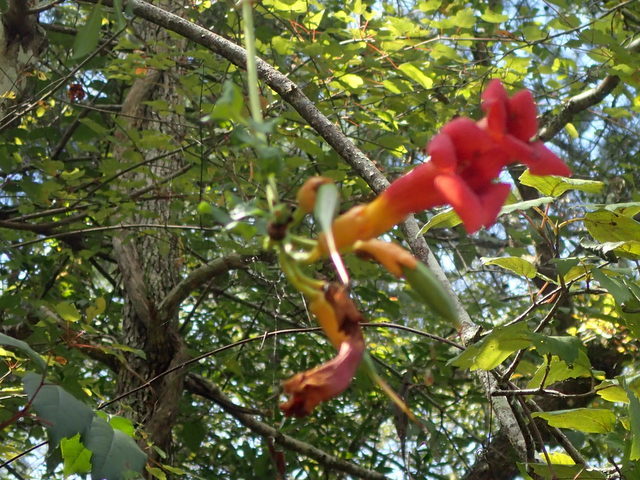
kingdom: Plantae
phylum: Tracheophyta
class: Magnoliopsida
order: Lamiales
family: Bignoniaceae
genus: Campsis
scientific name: Campsis radicans
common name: Trumpet-creeper
